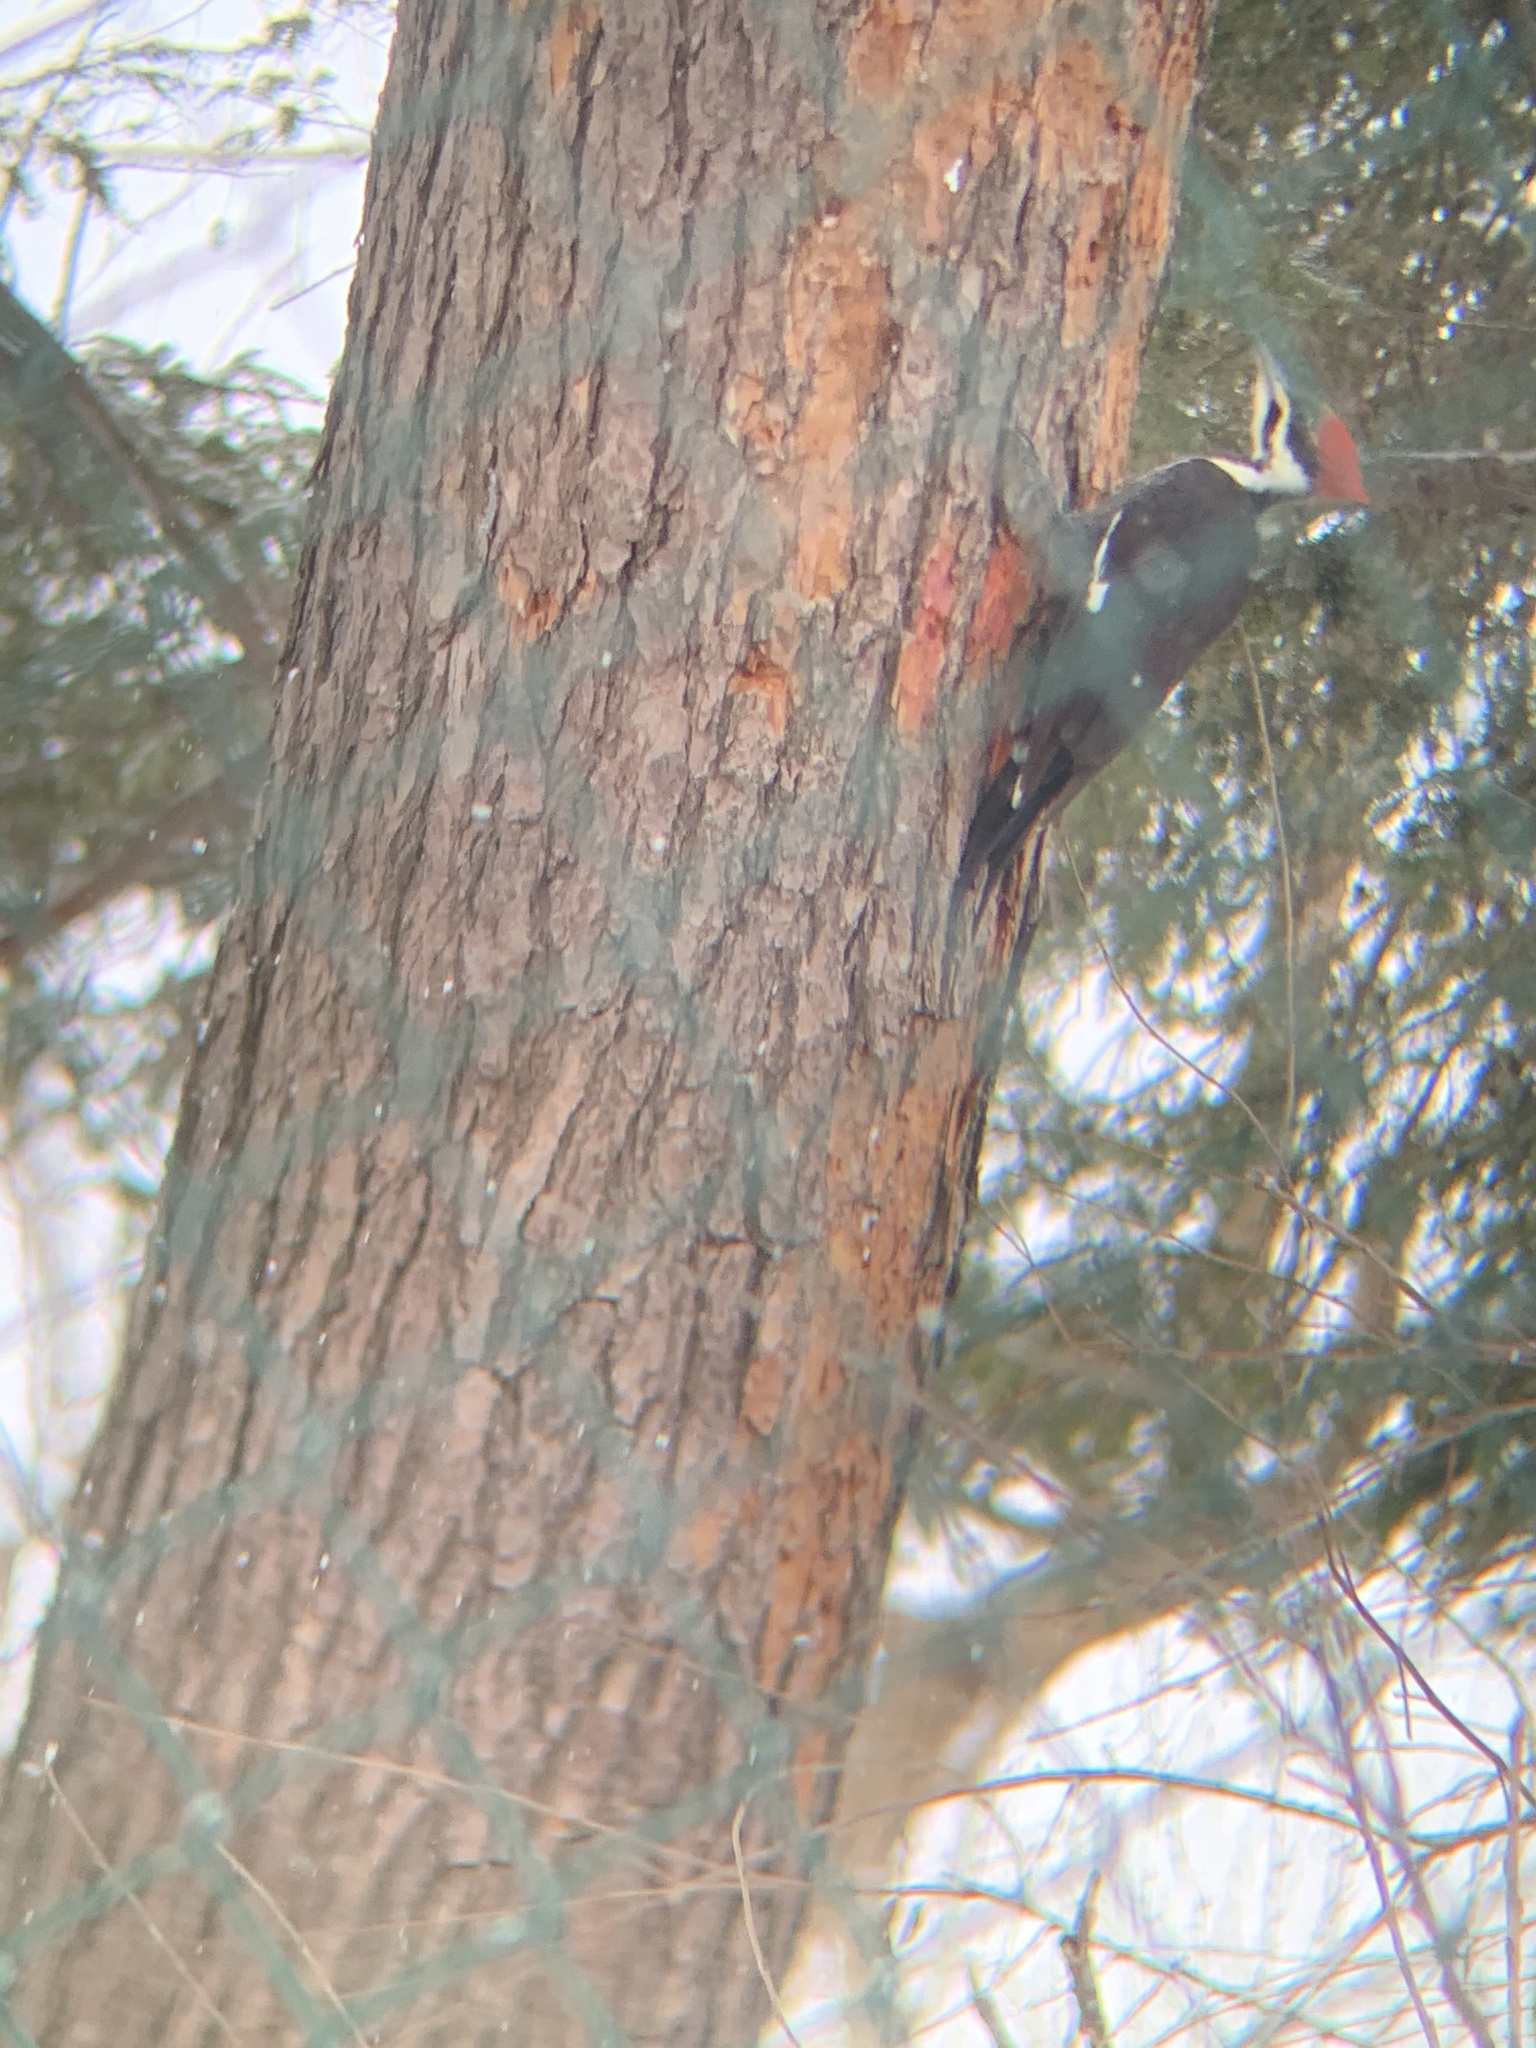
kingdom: Animalia
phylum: Chordata
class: Aves
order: Piciformes
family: Picidae
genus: Dryocopus
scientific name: Dryocopus pileatus
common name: Pileated woodpecker
